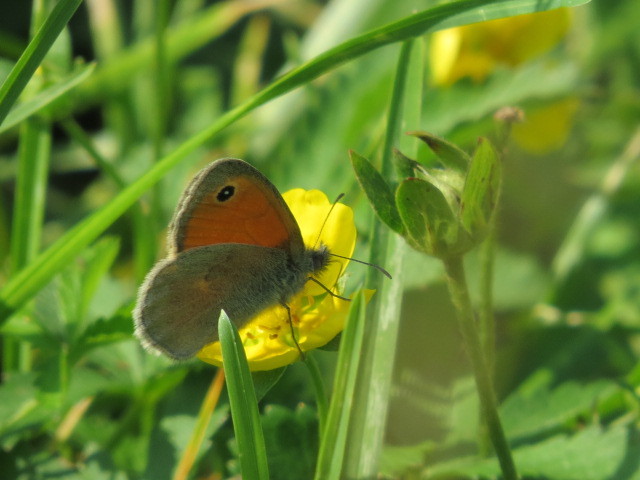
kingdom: Animalia
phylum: Arthropoda
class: Insecta
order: Lepidoptera
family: Nymphalidae
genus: Coenonympha
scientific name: Coenonympha pamphilus
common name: Small heath
